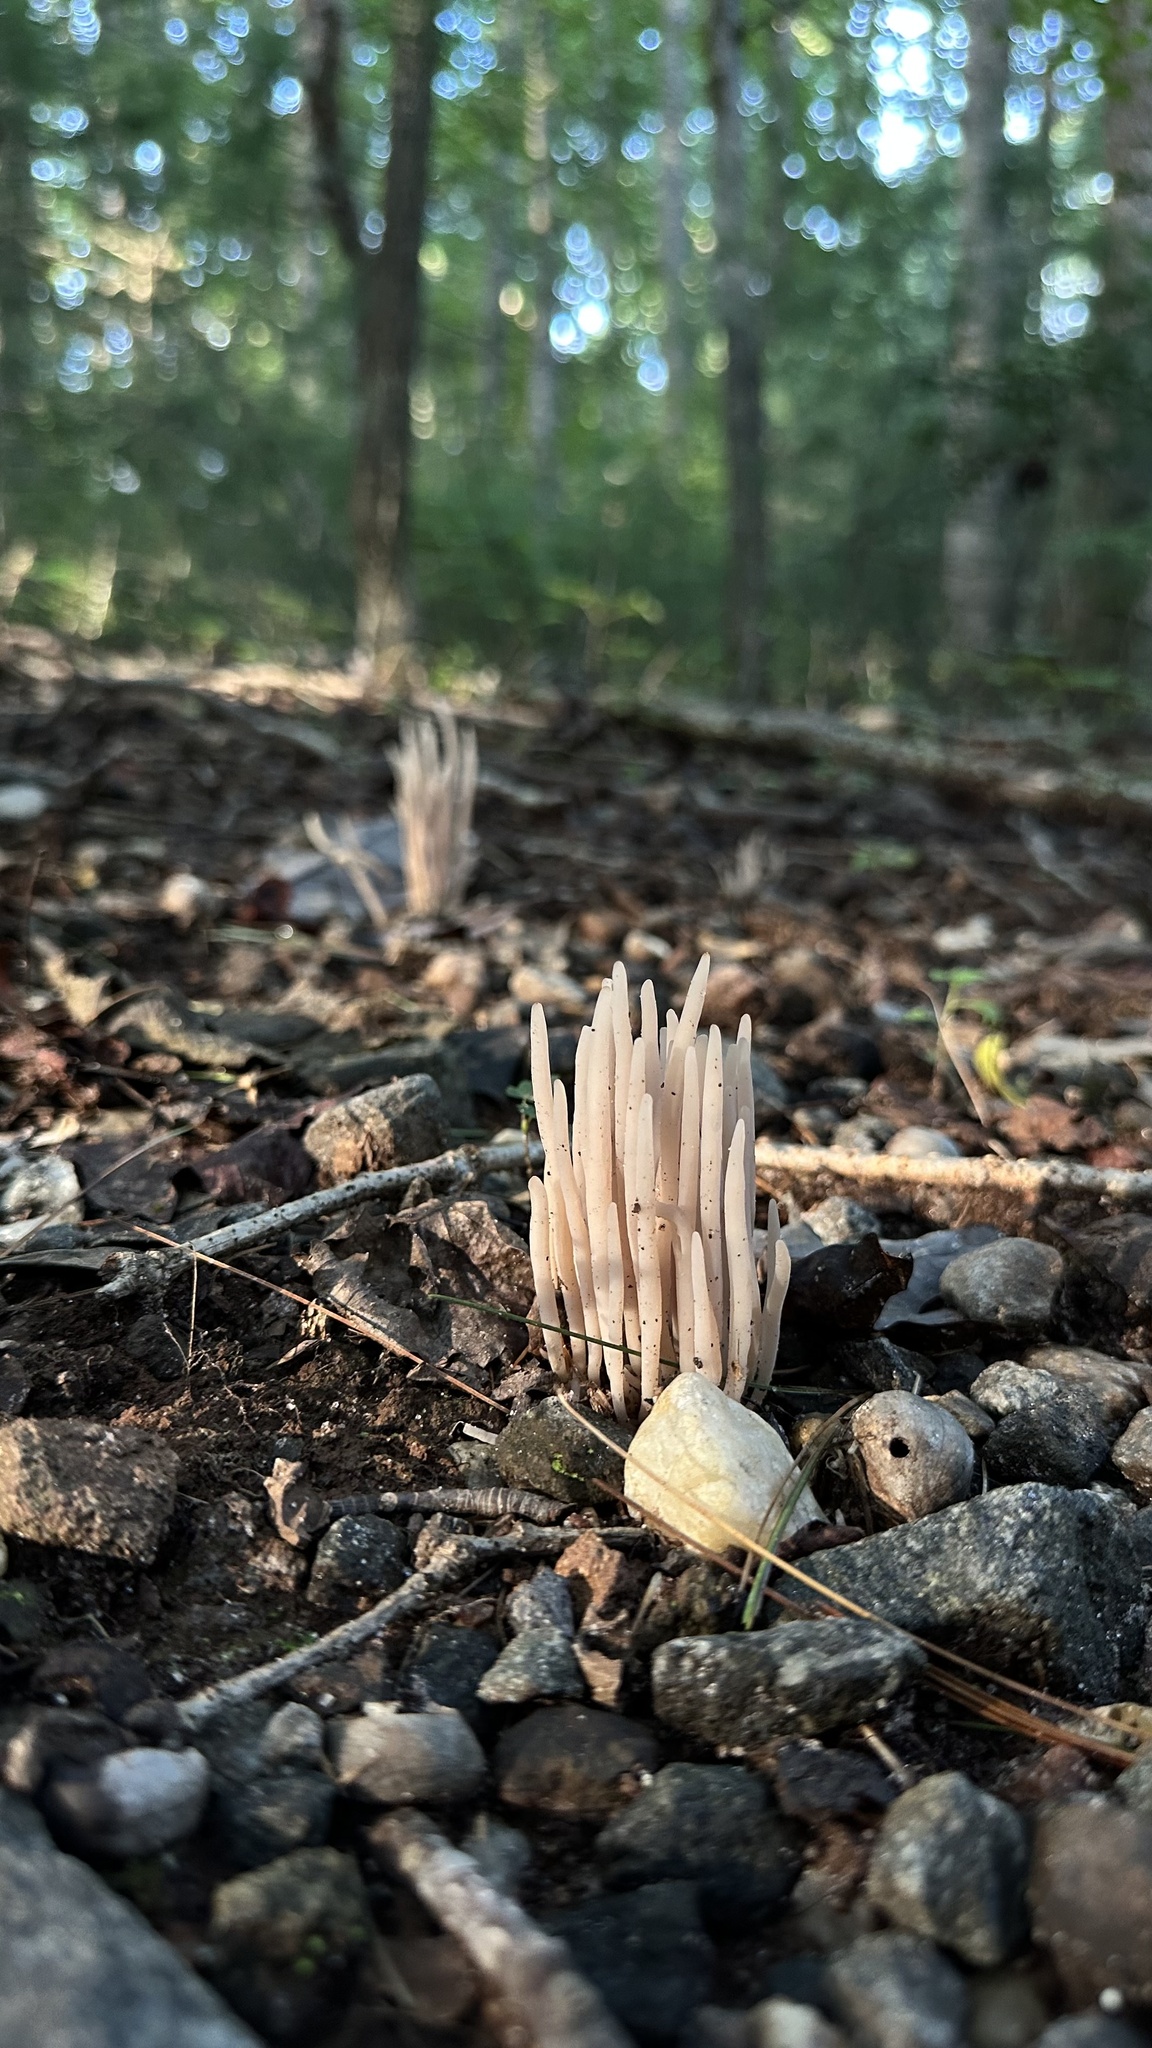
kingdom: Fungi
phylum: Basidiomycota
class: Agaricomycetes
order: Agaricales
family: Clavariaceae
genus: Clavaria
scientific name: Clavaria fumosa
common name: Smoky spindles
